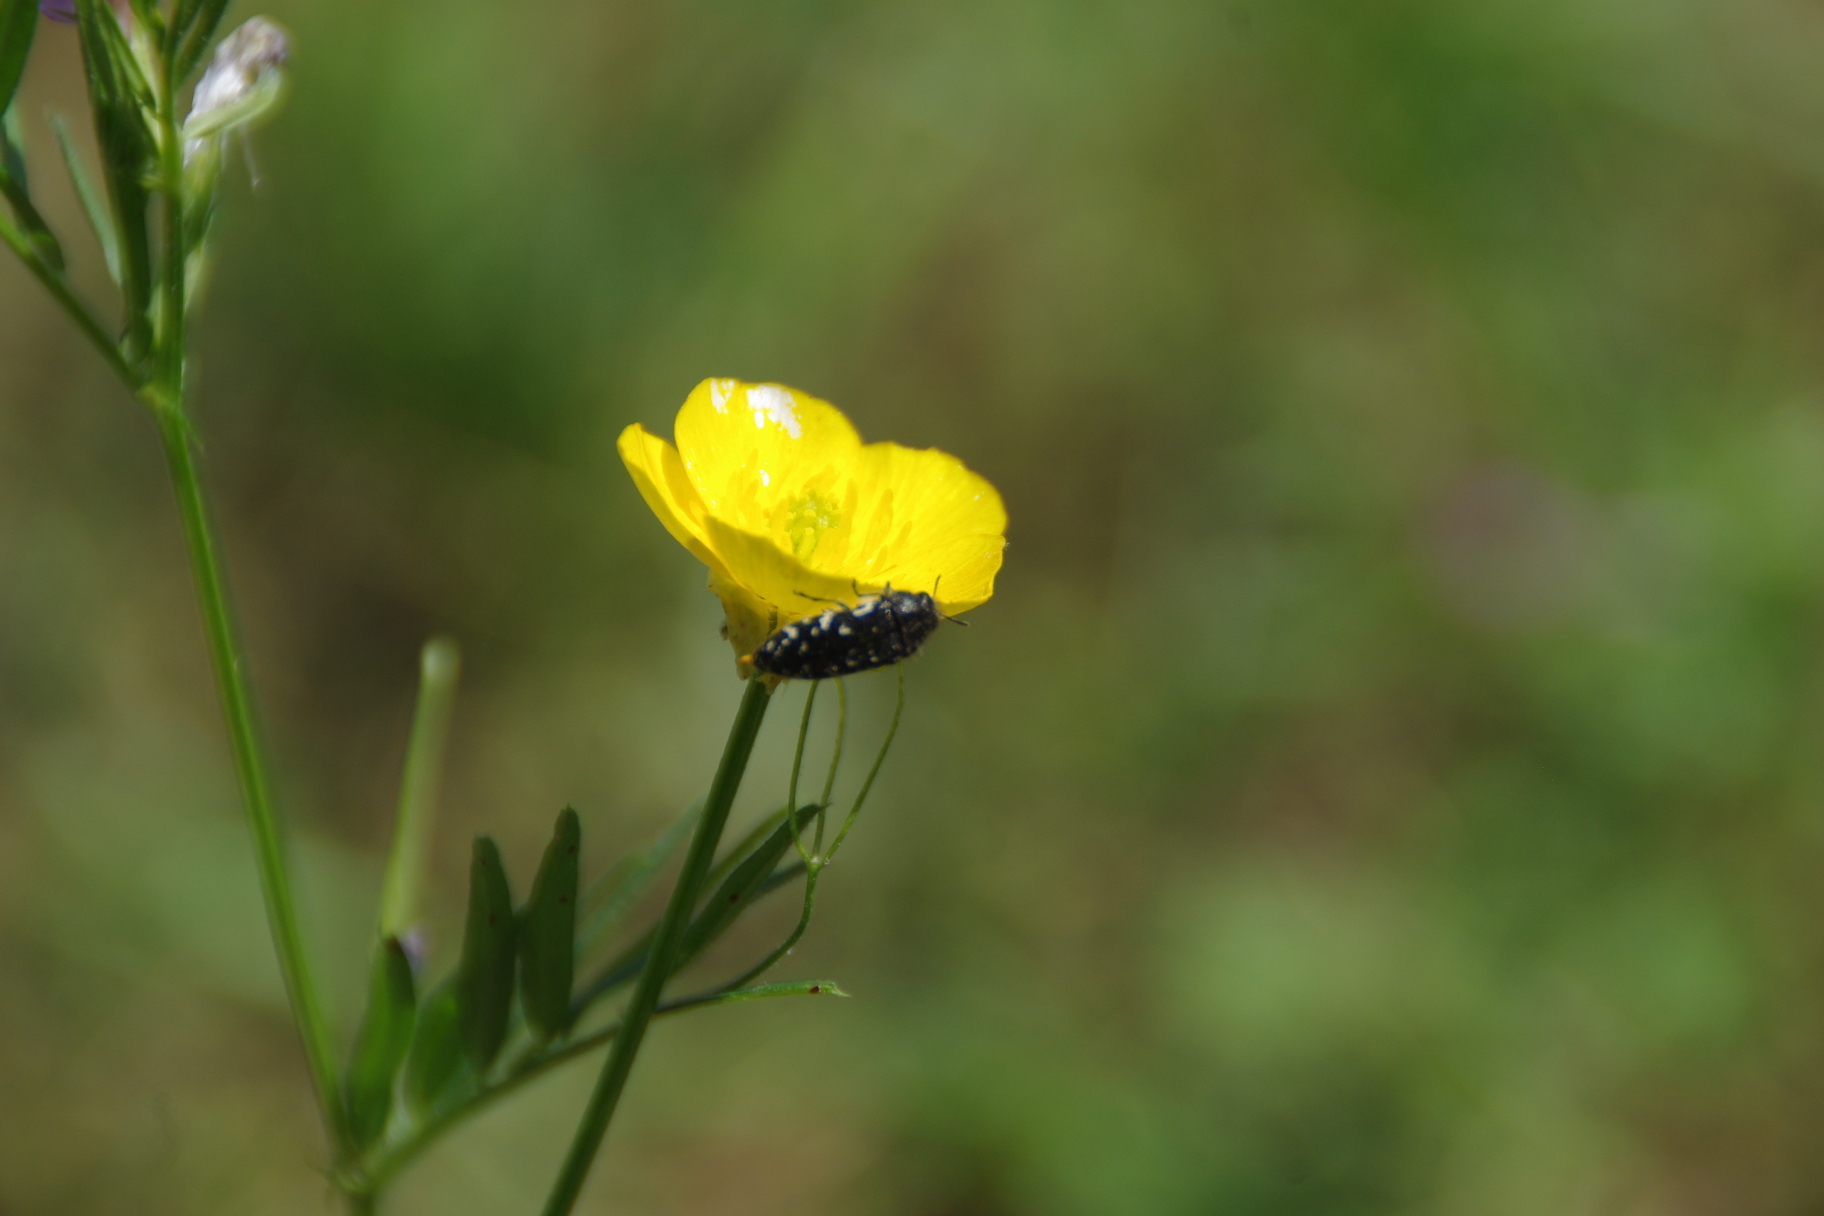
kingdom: Animalia
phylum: Arthropoda
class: Insecta
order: Coleoptera
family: Buprestidae
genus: Acmaeodera
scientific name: Acmaeodera ornata
